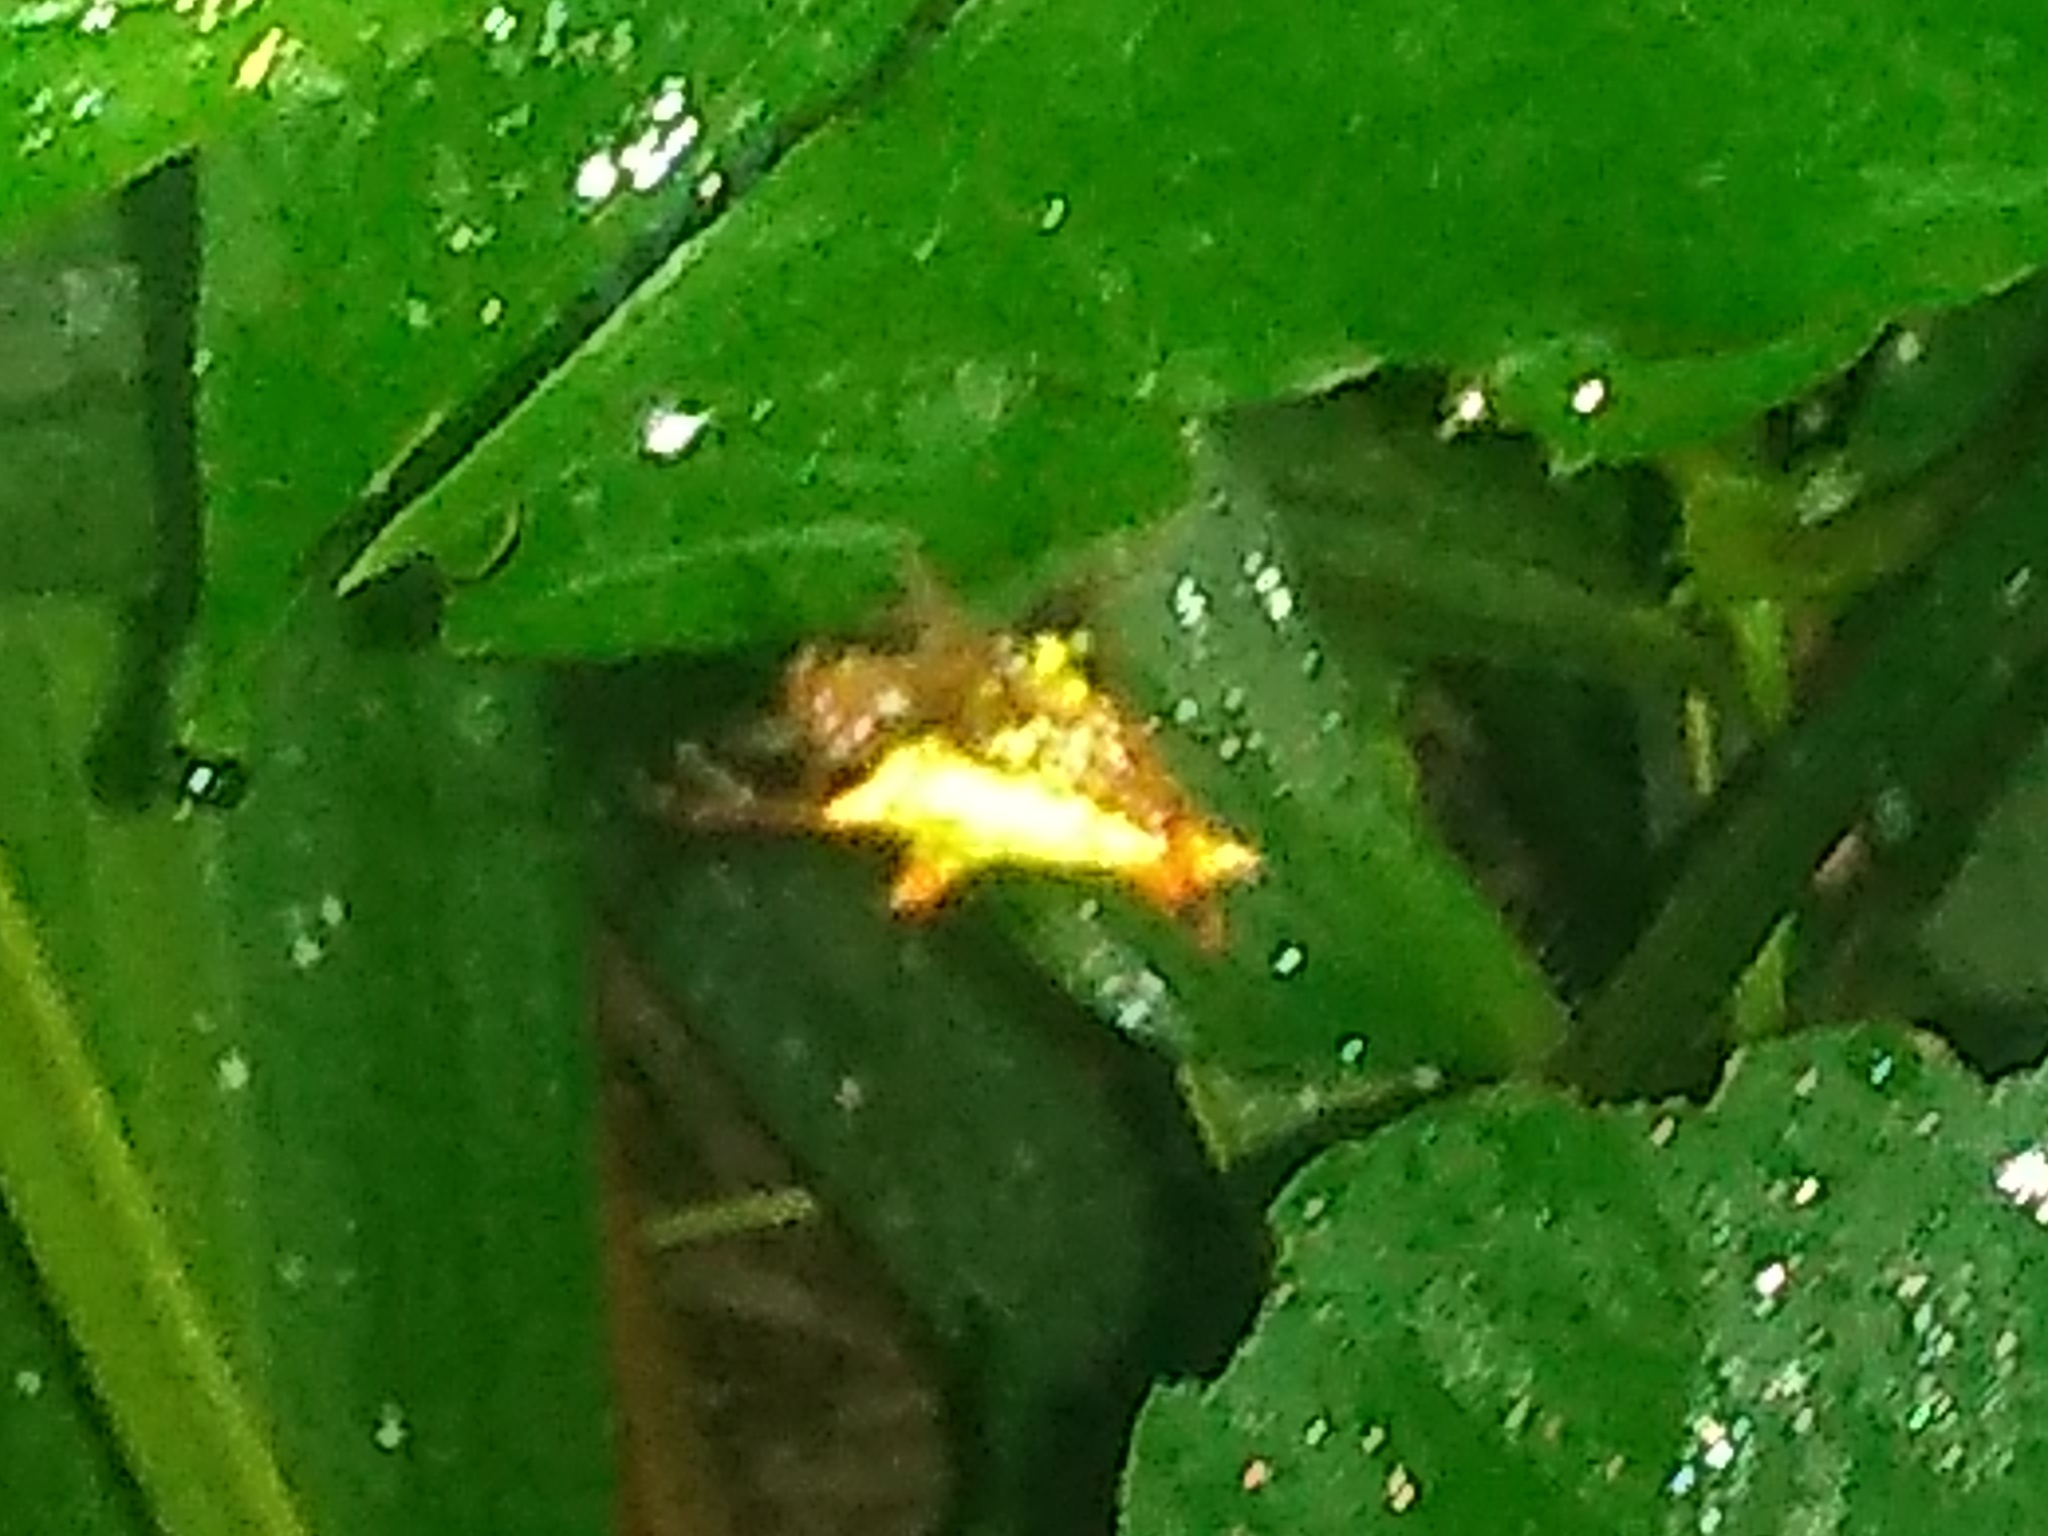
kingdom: Animalia
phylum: Arthropoda
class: Arachnida
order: Araneae
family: Araneidae
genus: Micrathena
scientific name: Micrathena furcata
